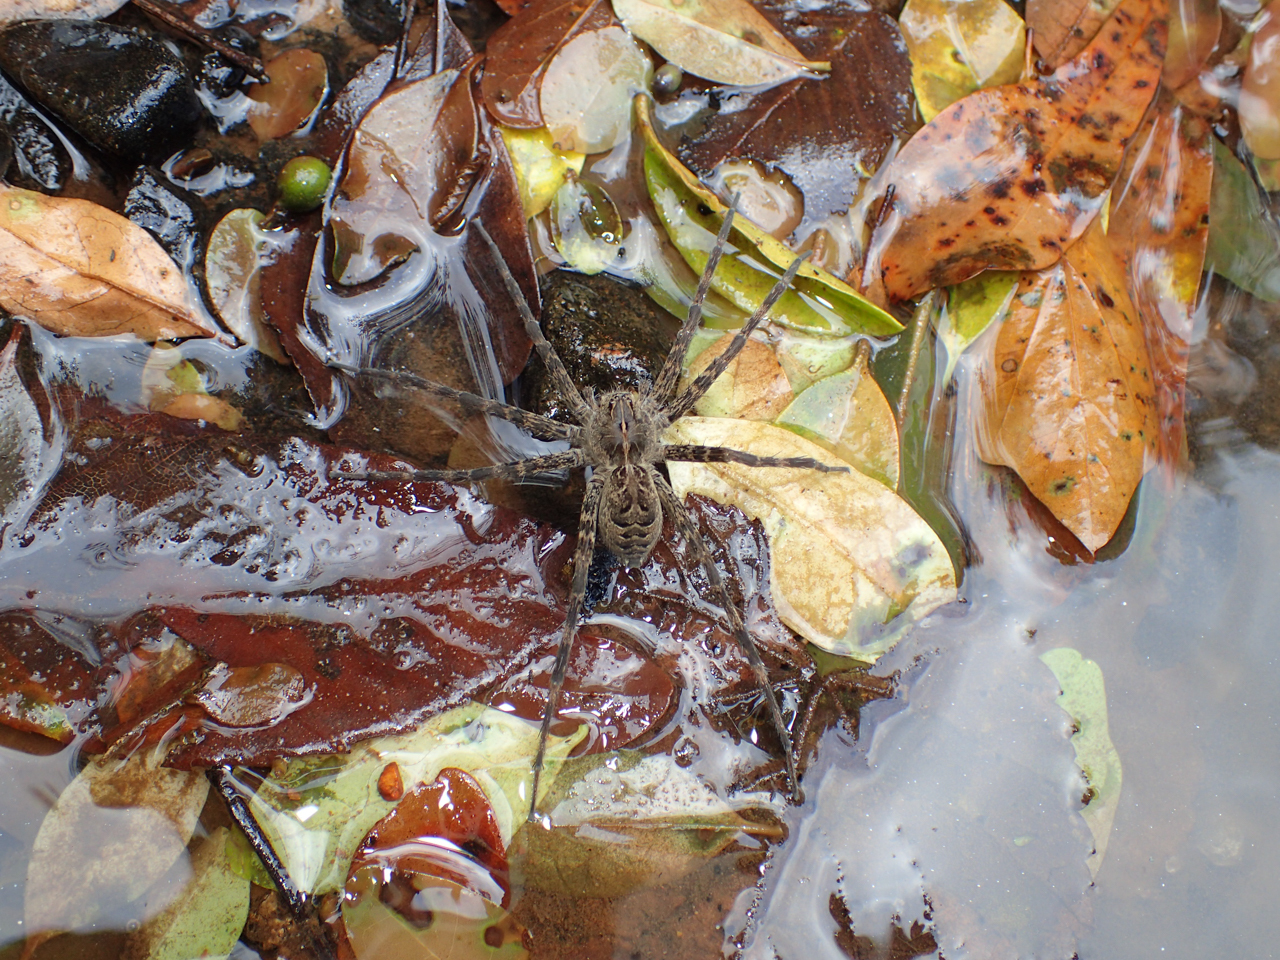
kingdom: Animalia
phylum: Arthropoda
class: Arachnida
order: Araneae
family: Pisauridae
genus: Dolomedes
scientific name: Dolomedes scriptus
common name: Striped fishing spider
